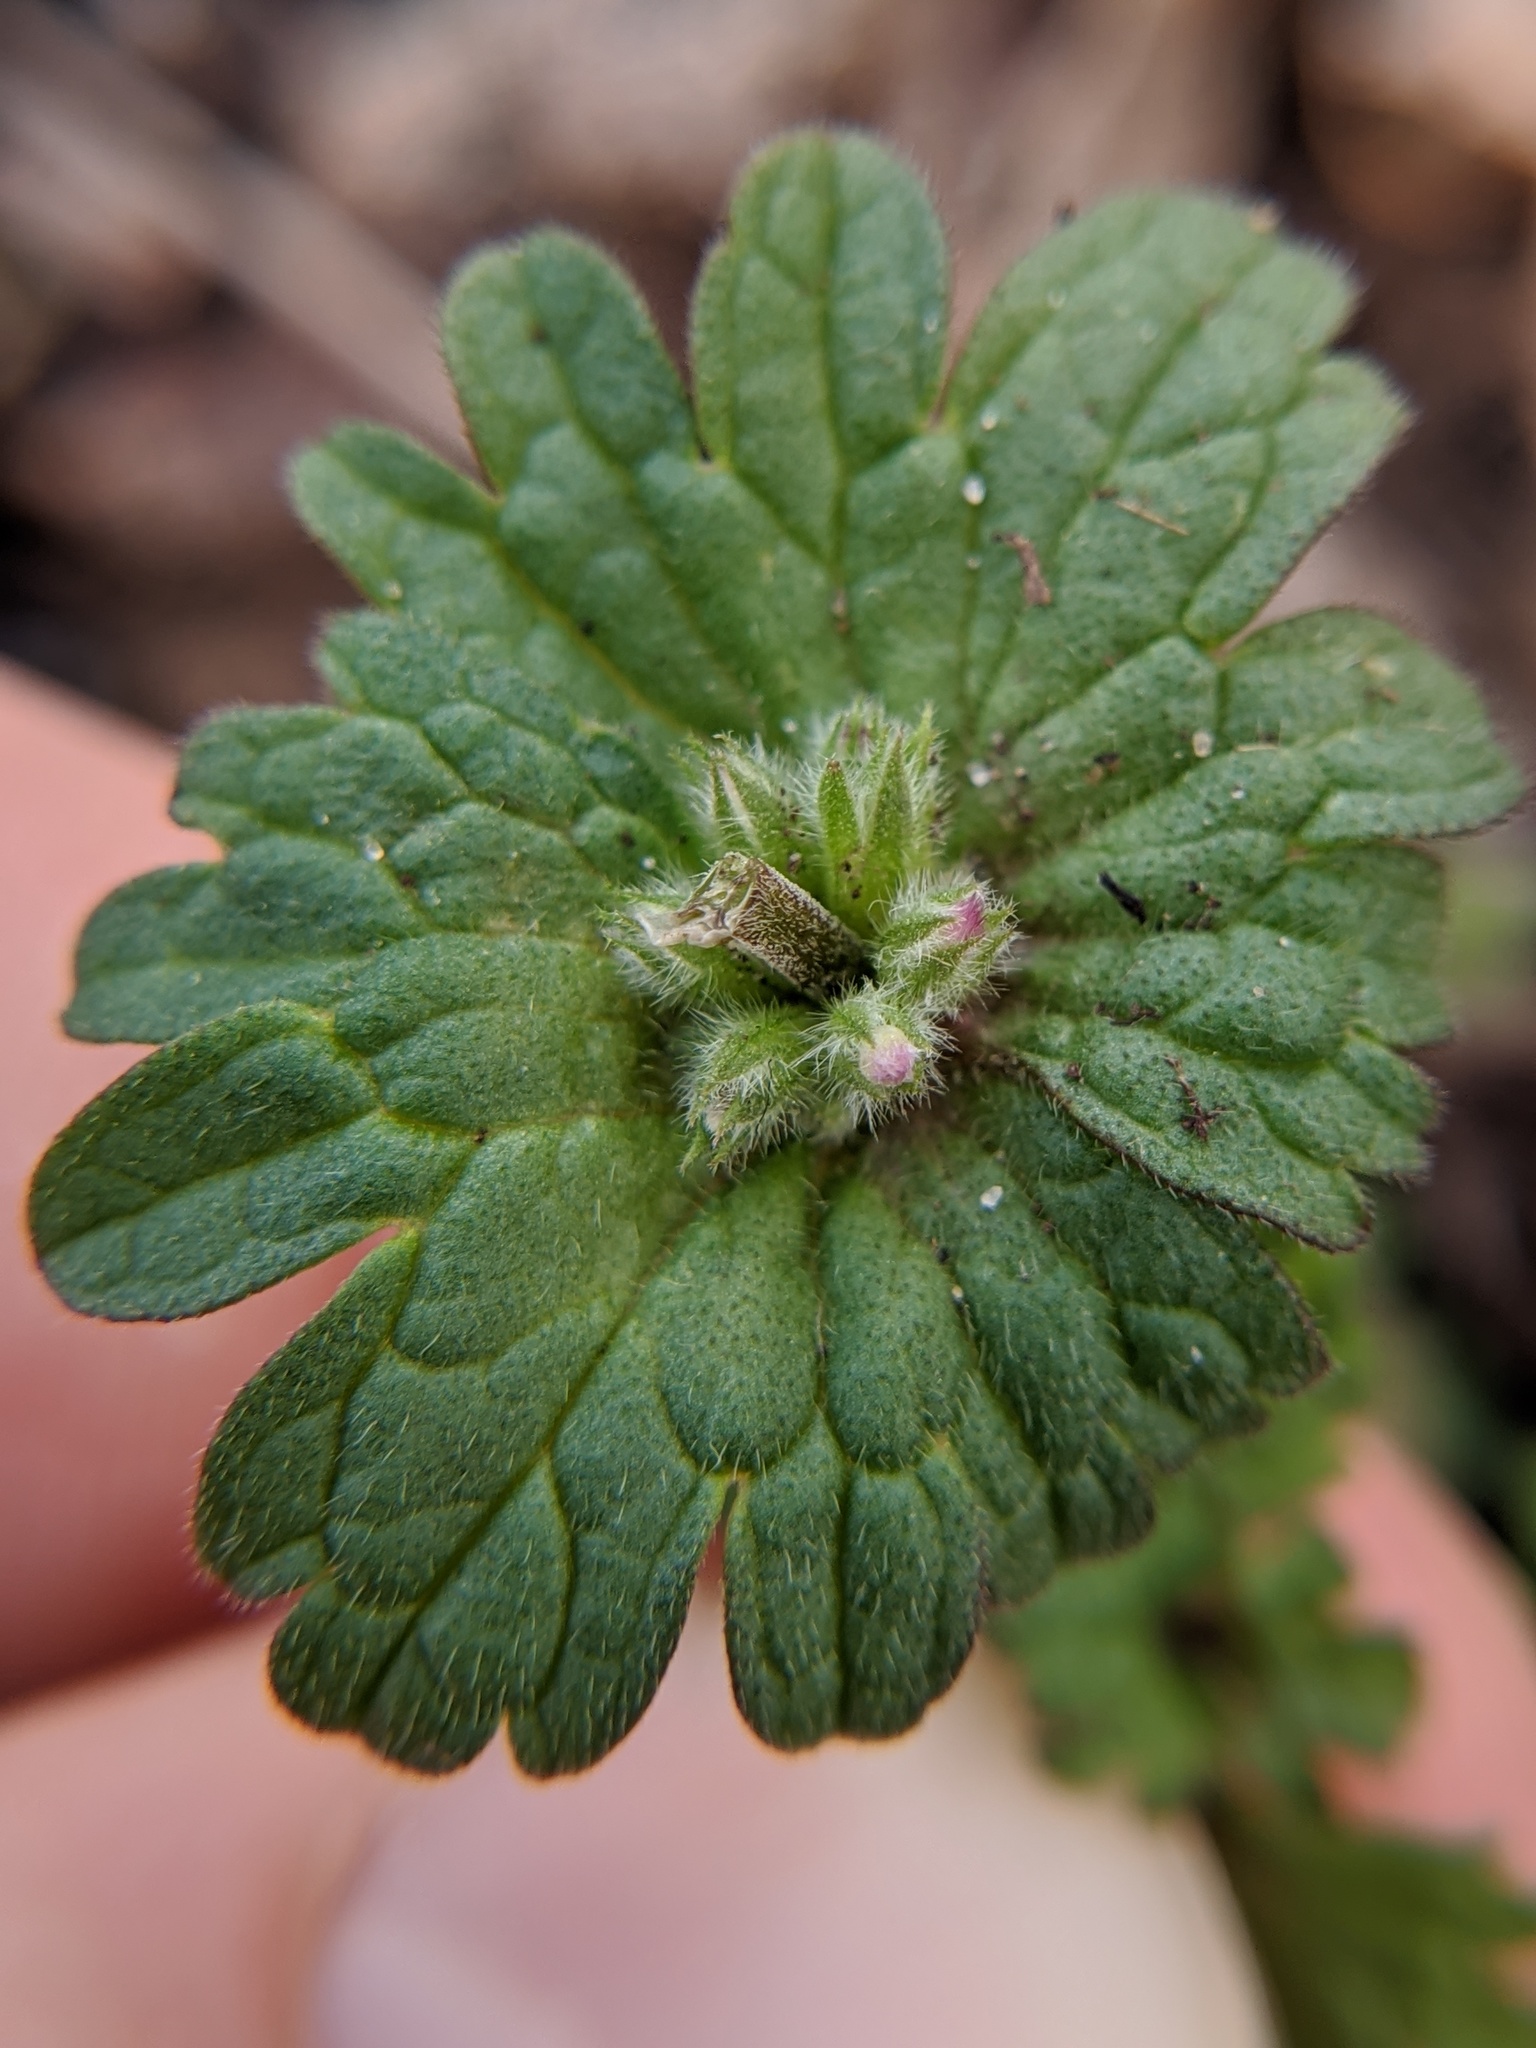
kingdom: Plantae
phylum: Tracheophyta
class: Magnoliopsida
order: Lamiales
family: Lamiaceae
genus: Lamium
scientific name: Lamium amplexicaule
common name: Henbit dead-nettle
